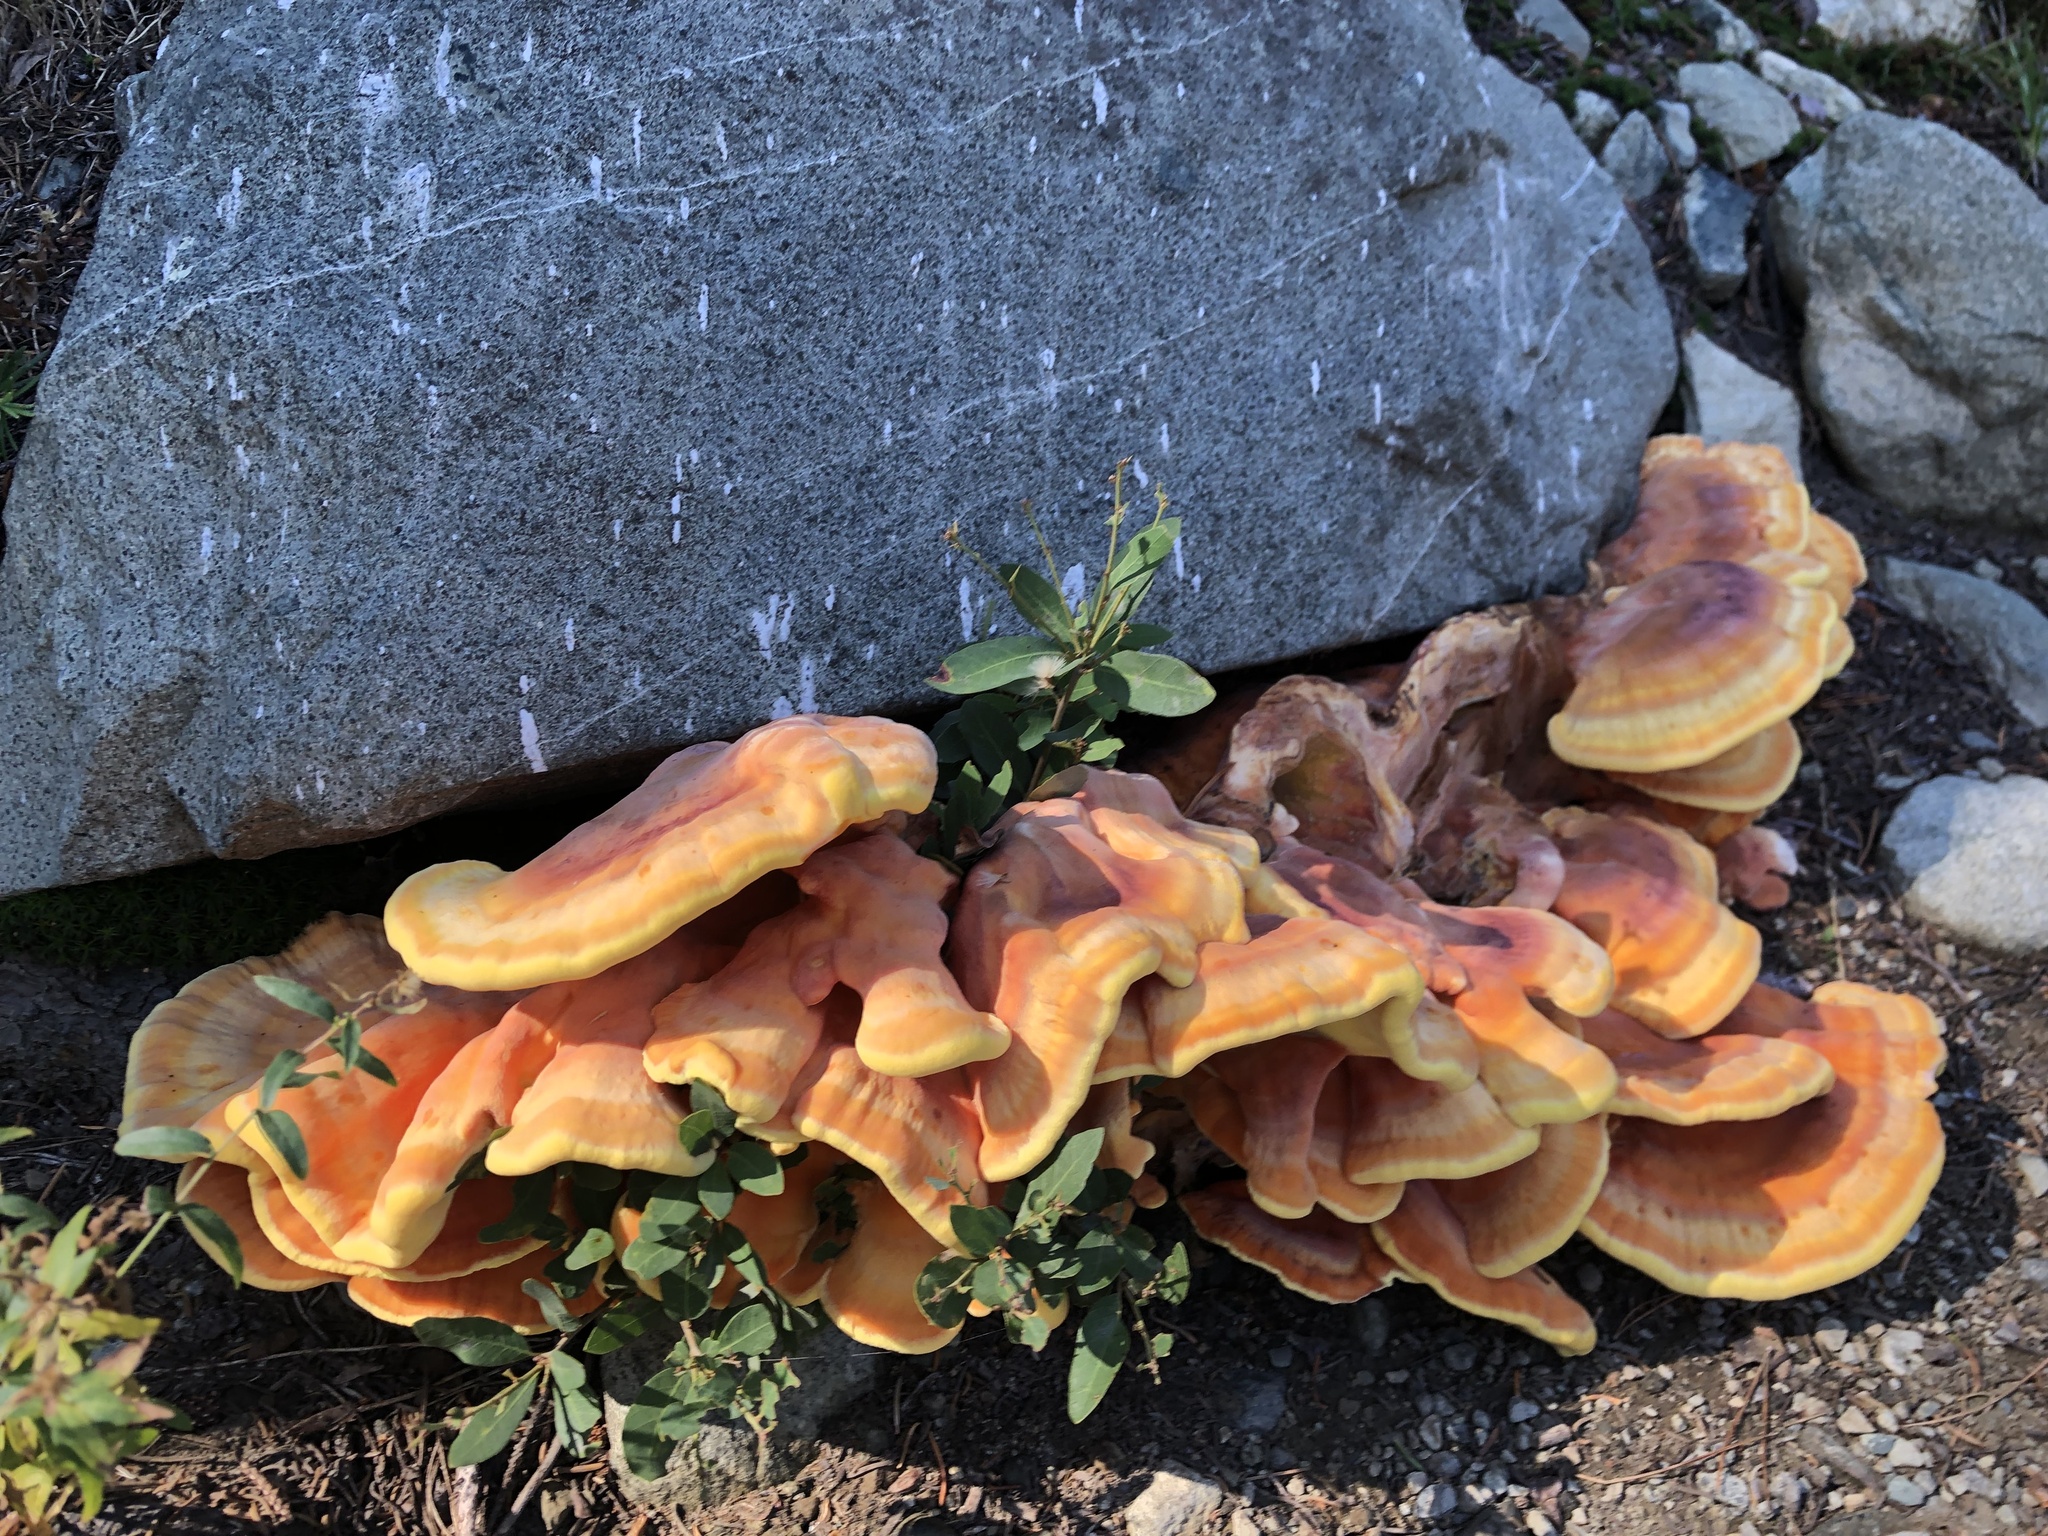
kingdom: Fungi
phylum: Basidiomycota
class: Agaricomycetes
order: Polyporales
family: Laetiporaceae
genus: Laetiporus
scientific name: Laetiporus gilbertsonii
